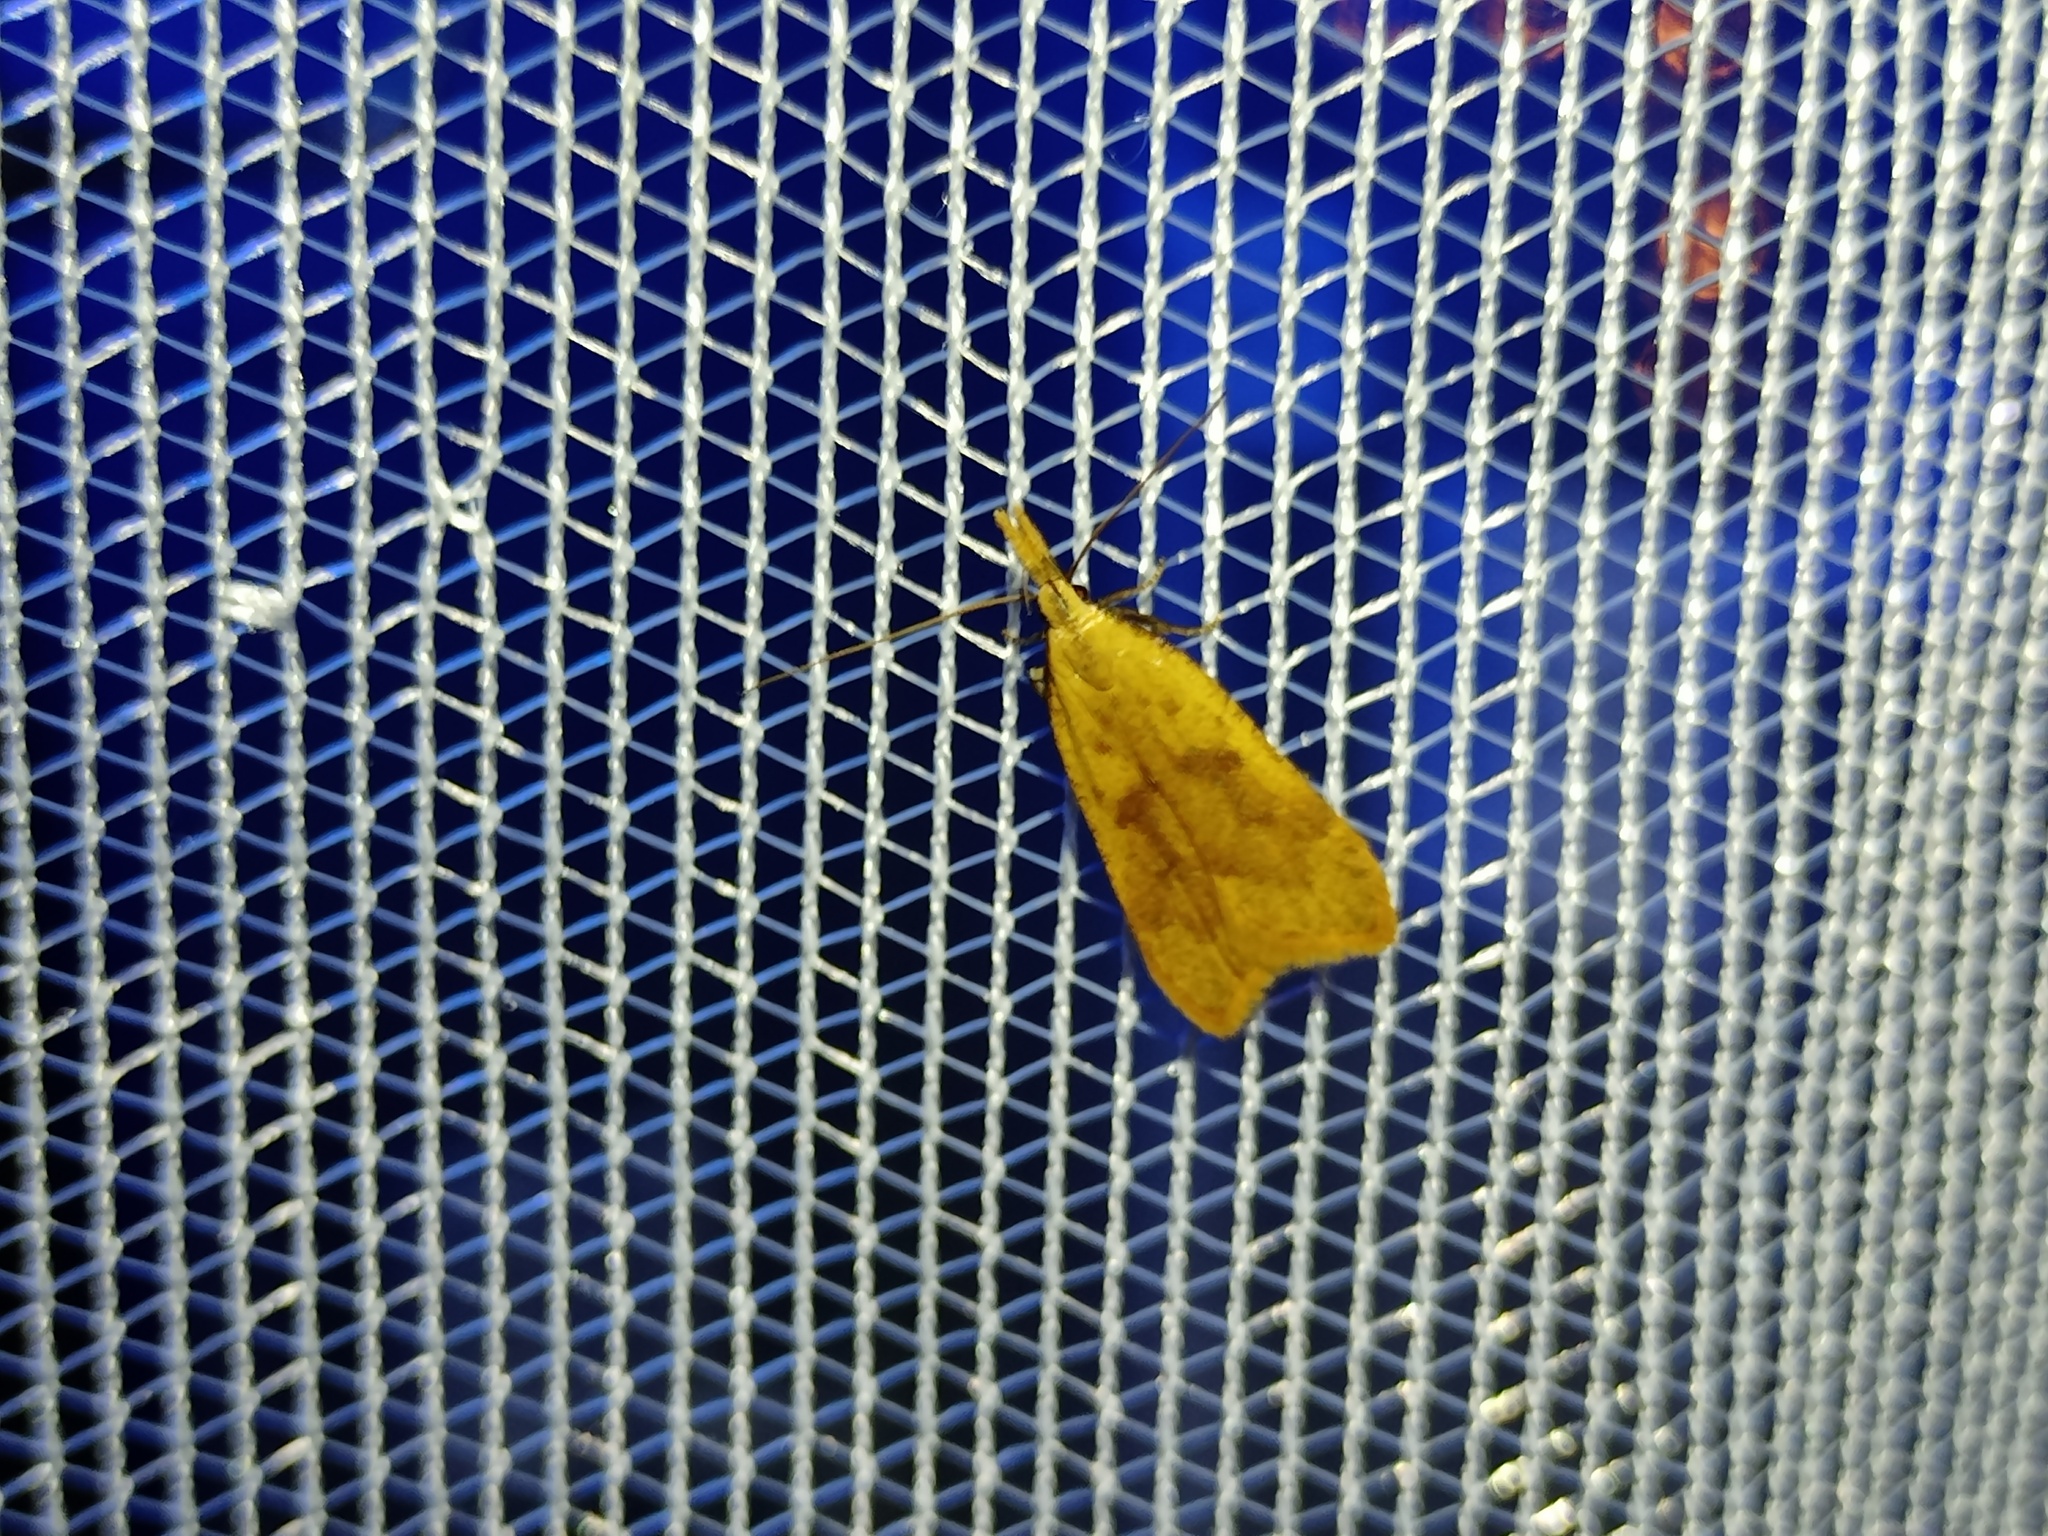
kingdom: Animalia
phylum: Arthropoda
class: Insecta
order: Lepidoptera
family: Gelechiidae
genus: Dichomeris
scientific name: Dichomeris derasella
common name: Blackthorn crest
